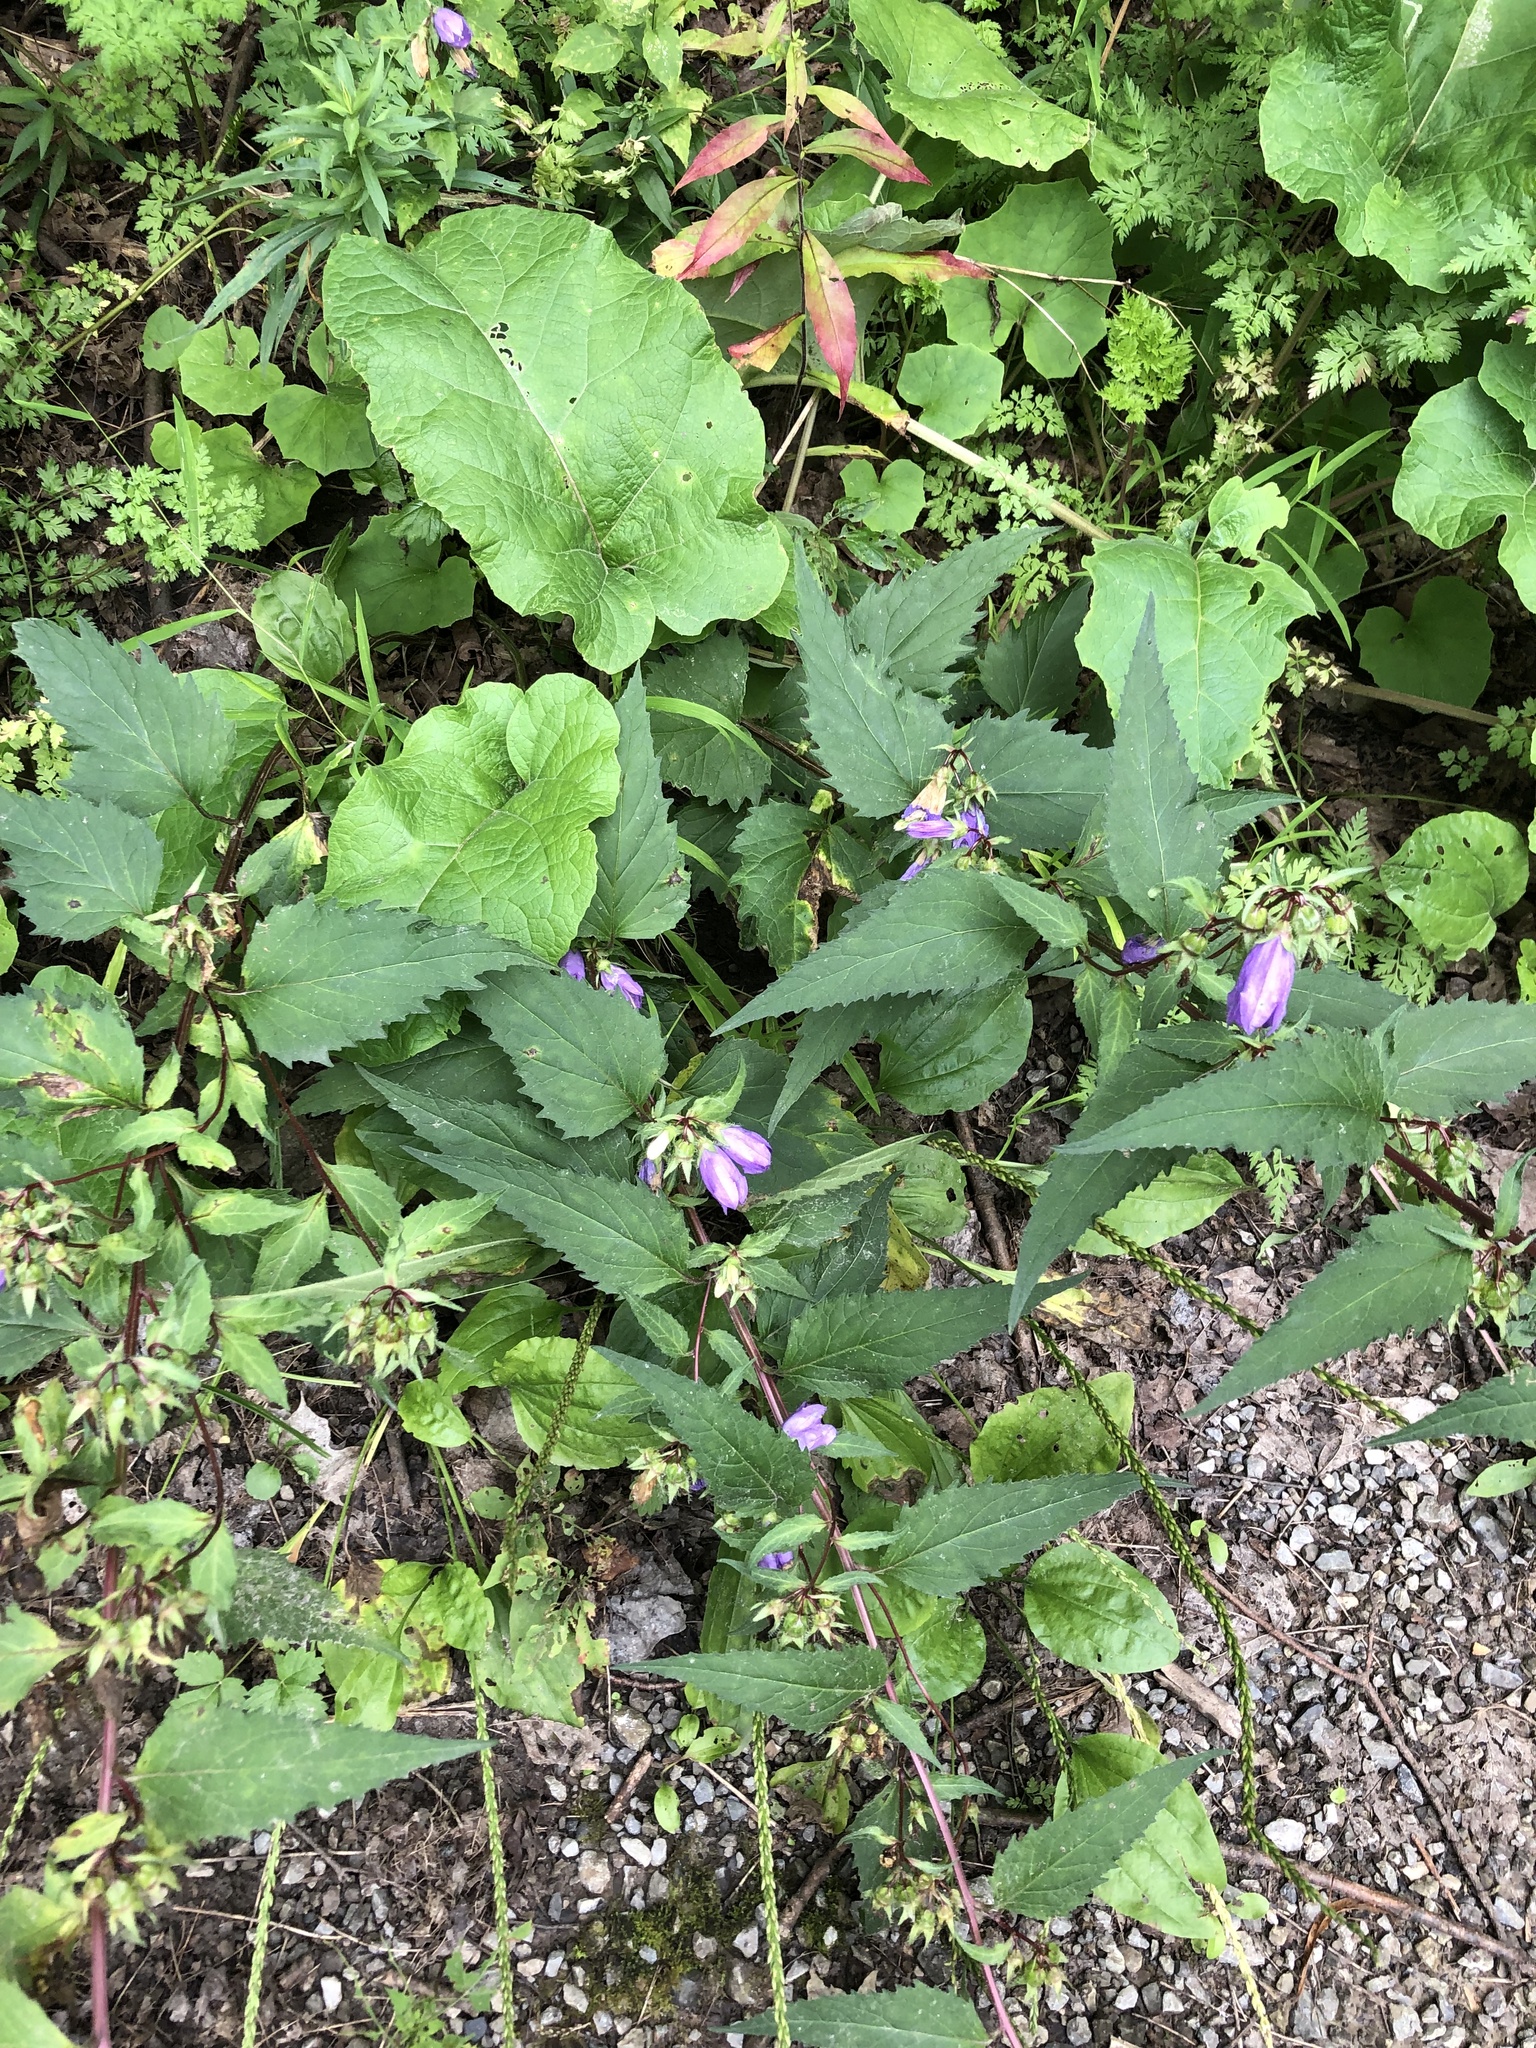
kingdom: Plantae
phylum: Tracheophyta
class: Magnoliopsida
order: Asterales
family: Campanulaceae
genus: Campanula
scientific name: Campanula trachelium
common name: Nettle-leaved bellflower
